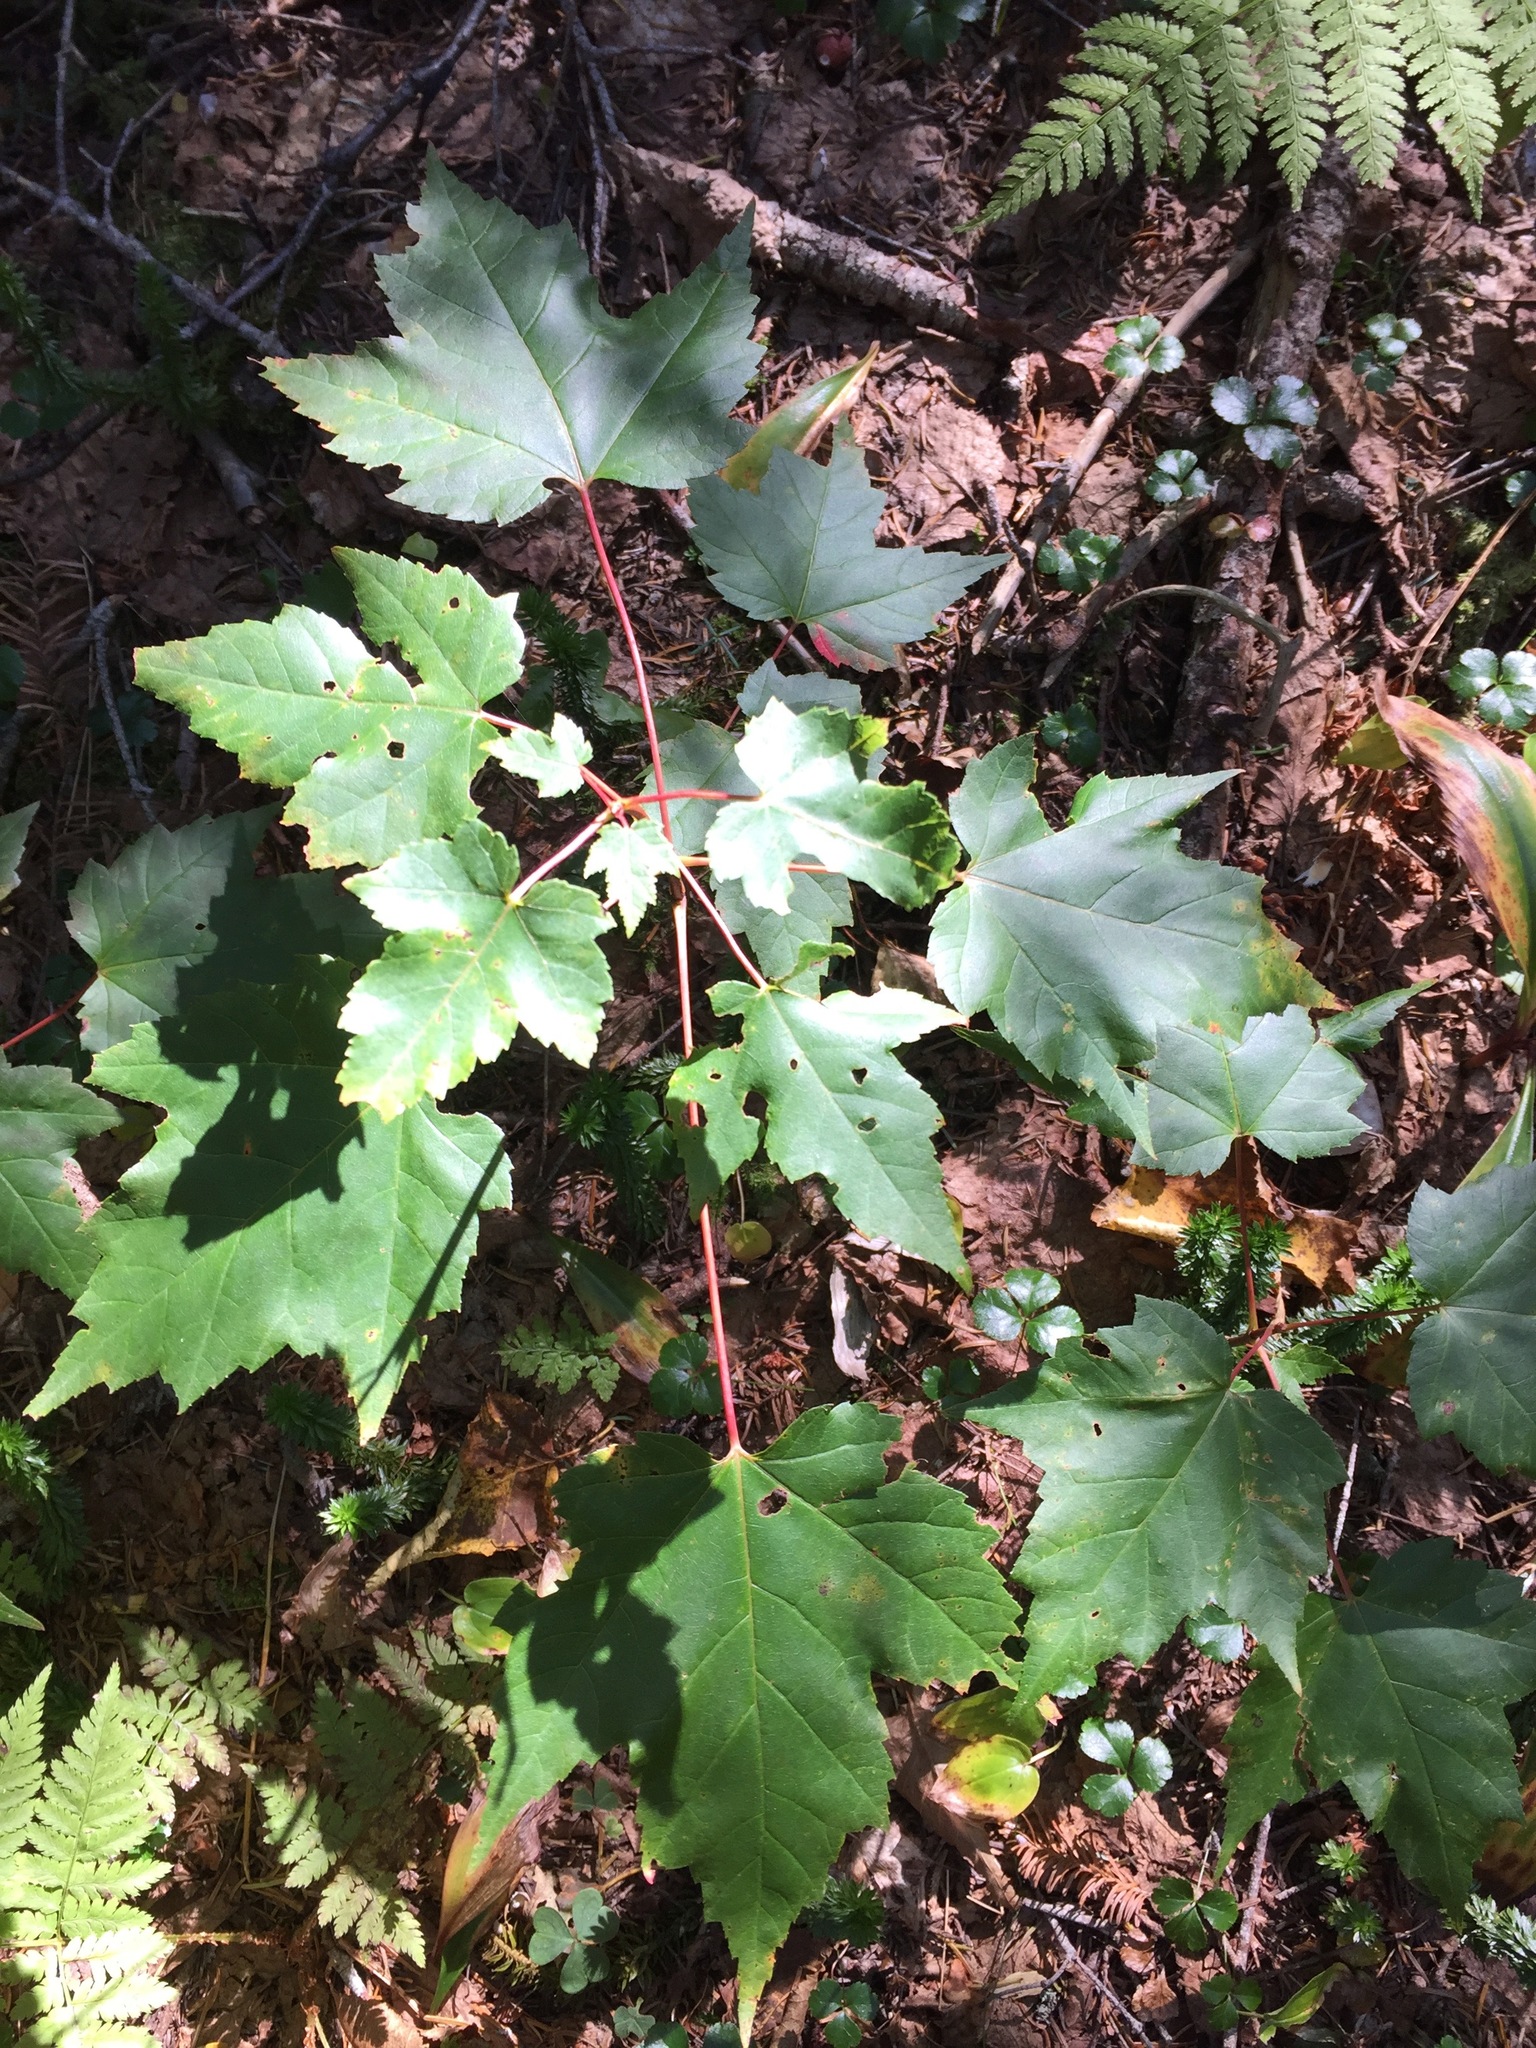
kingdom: Plantae
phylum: Tracheophyta
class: Magnoliopsida
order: Sapindales
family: Sapindaceae
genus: Acer
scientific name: Acer rubrum
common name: Red maple
